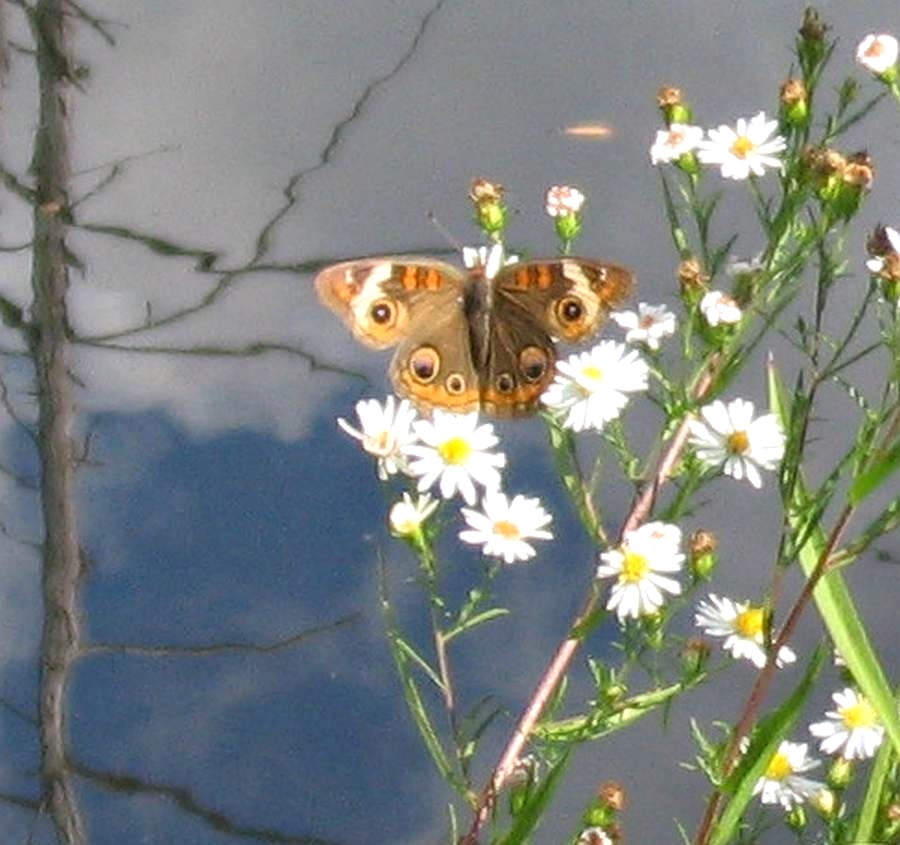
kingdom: Animalia
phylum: Arthropoda
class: Insecta
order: Lepidoptera
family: Nymphalidae
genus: Junonia
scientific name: Junonia coenia
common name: Common buckeye
